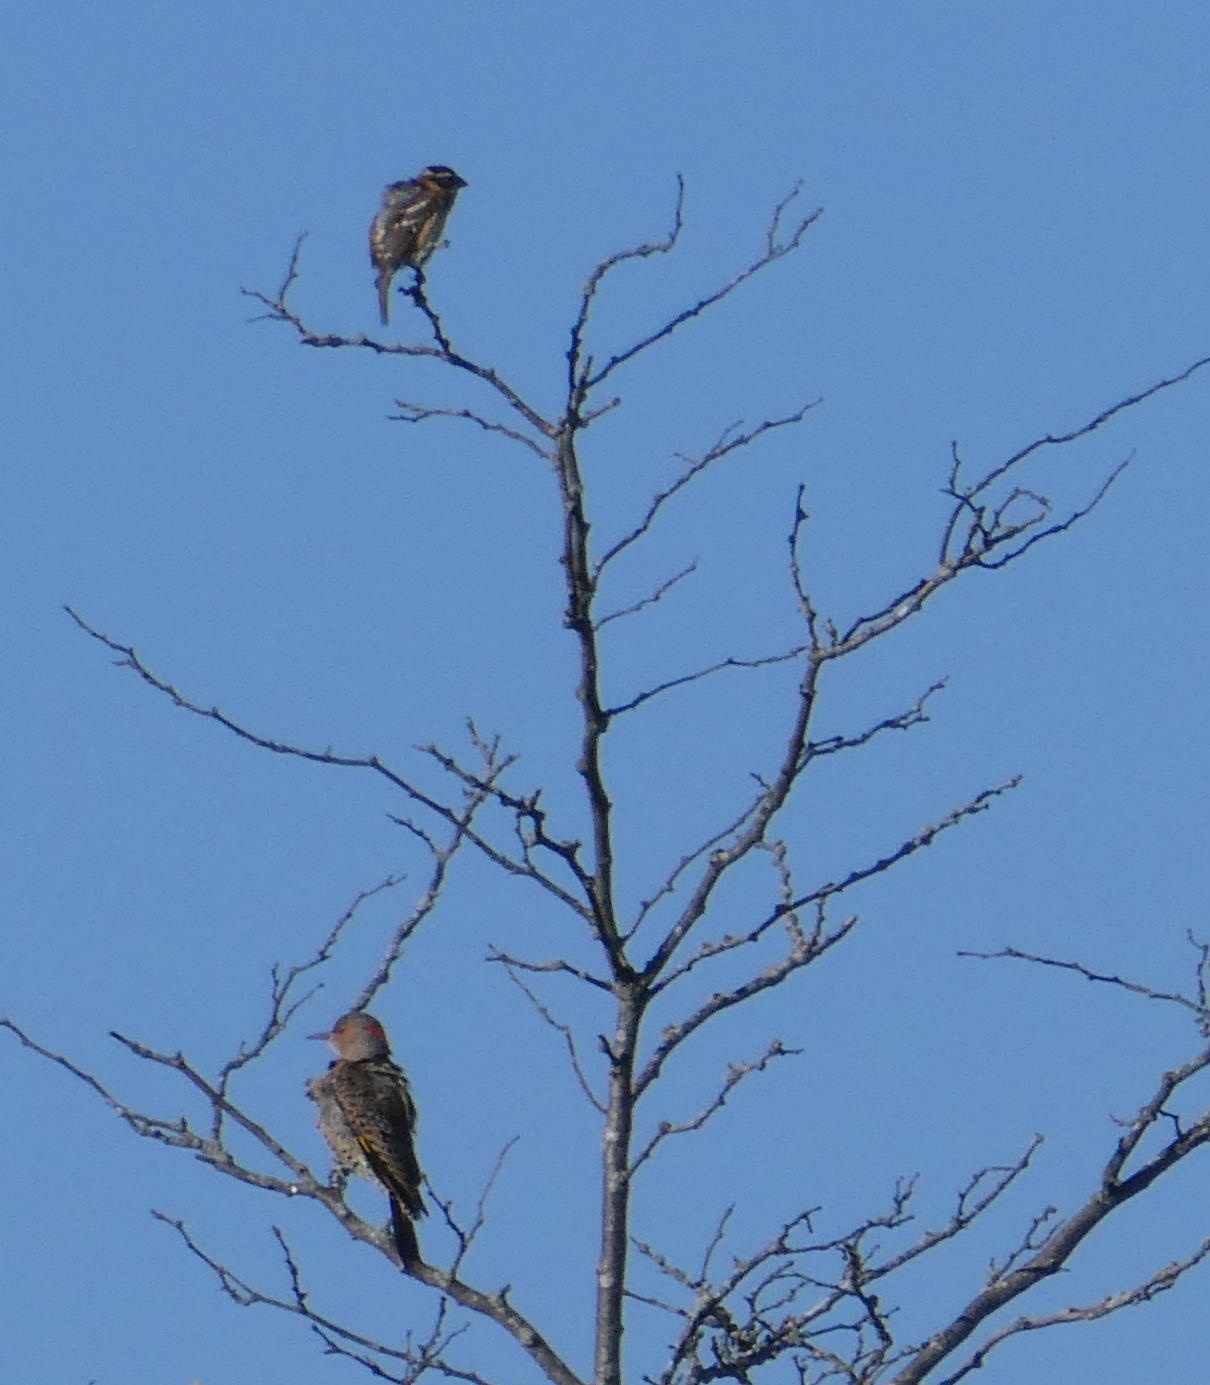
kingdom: Animalia
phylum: Chordata
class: Aves
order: Piciformes
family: Picidae
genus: Colaptes
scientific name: Colaptes auratus
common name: Northern flicker
